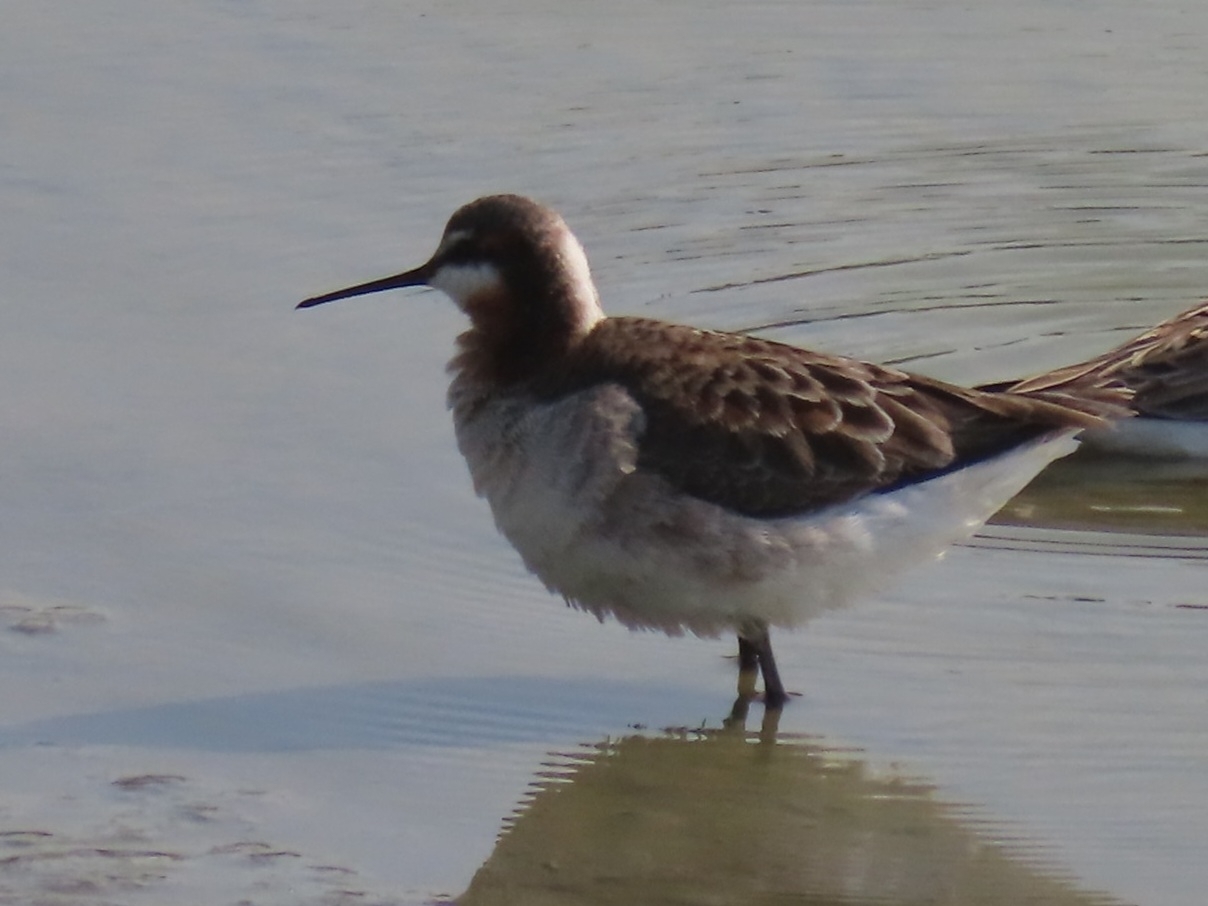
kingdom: Animalia
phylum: Chordata
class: Aves
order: Charadriiformes
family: Scolopacidae
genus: Phalaropus
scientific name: Phalaropus tricolor
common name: Wilson's phalarope
